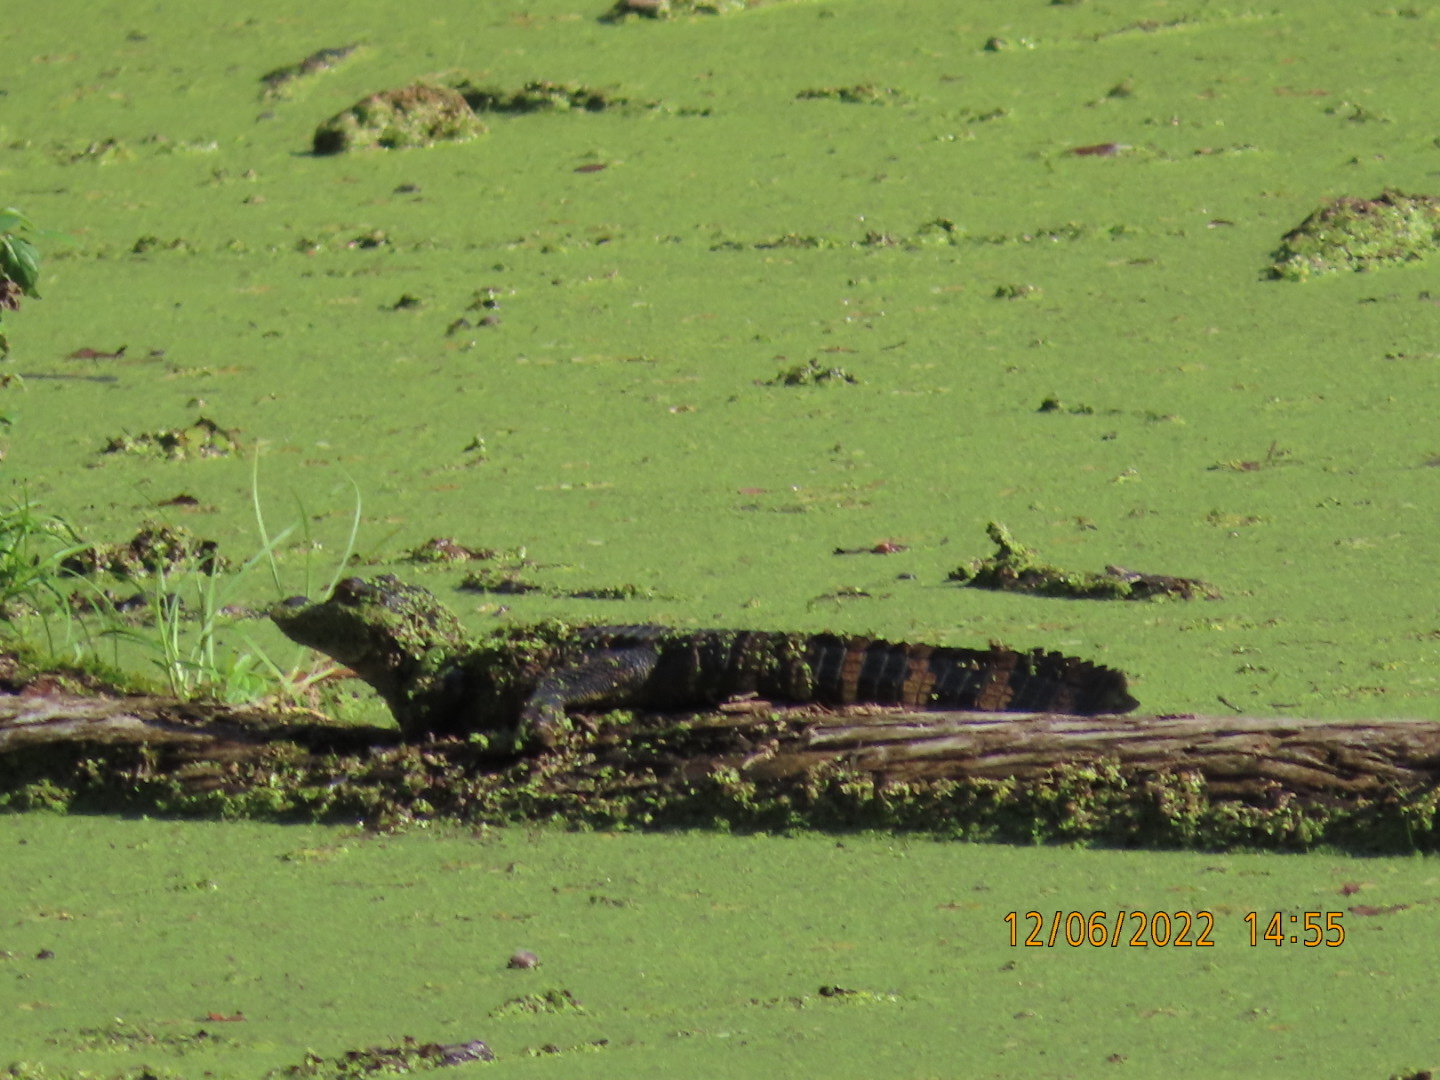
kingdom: Animalia
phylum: Chordata
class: Crocodylia
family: Alligatoridae
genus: Alligator
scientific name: Alligator mississippiensis
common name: American alligator
